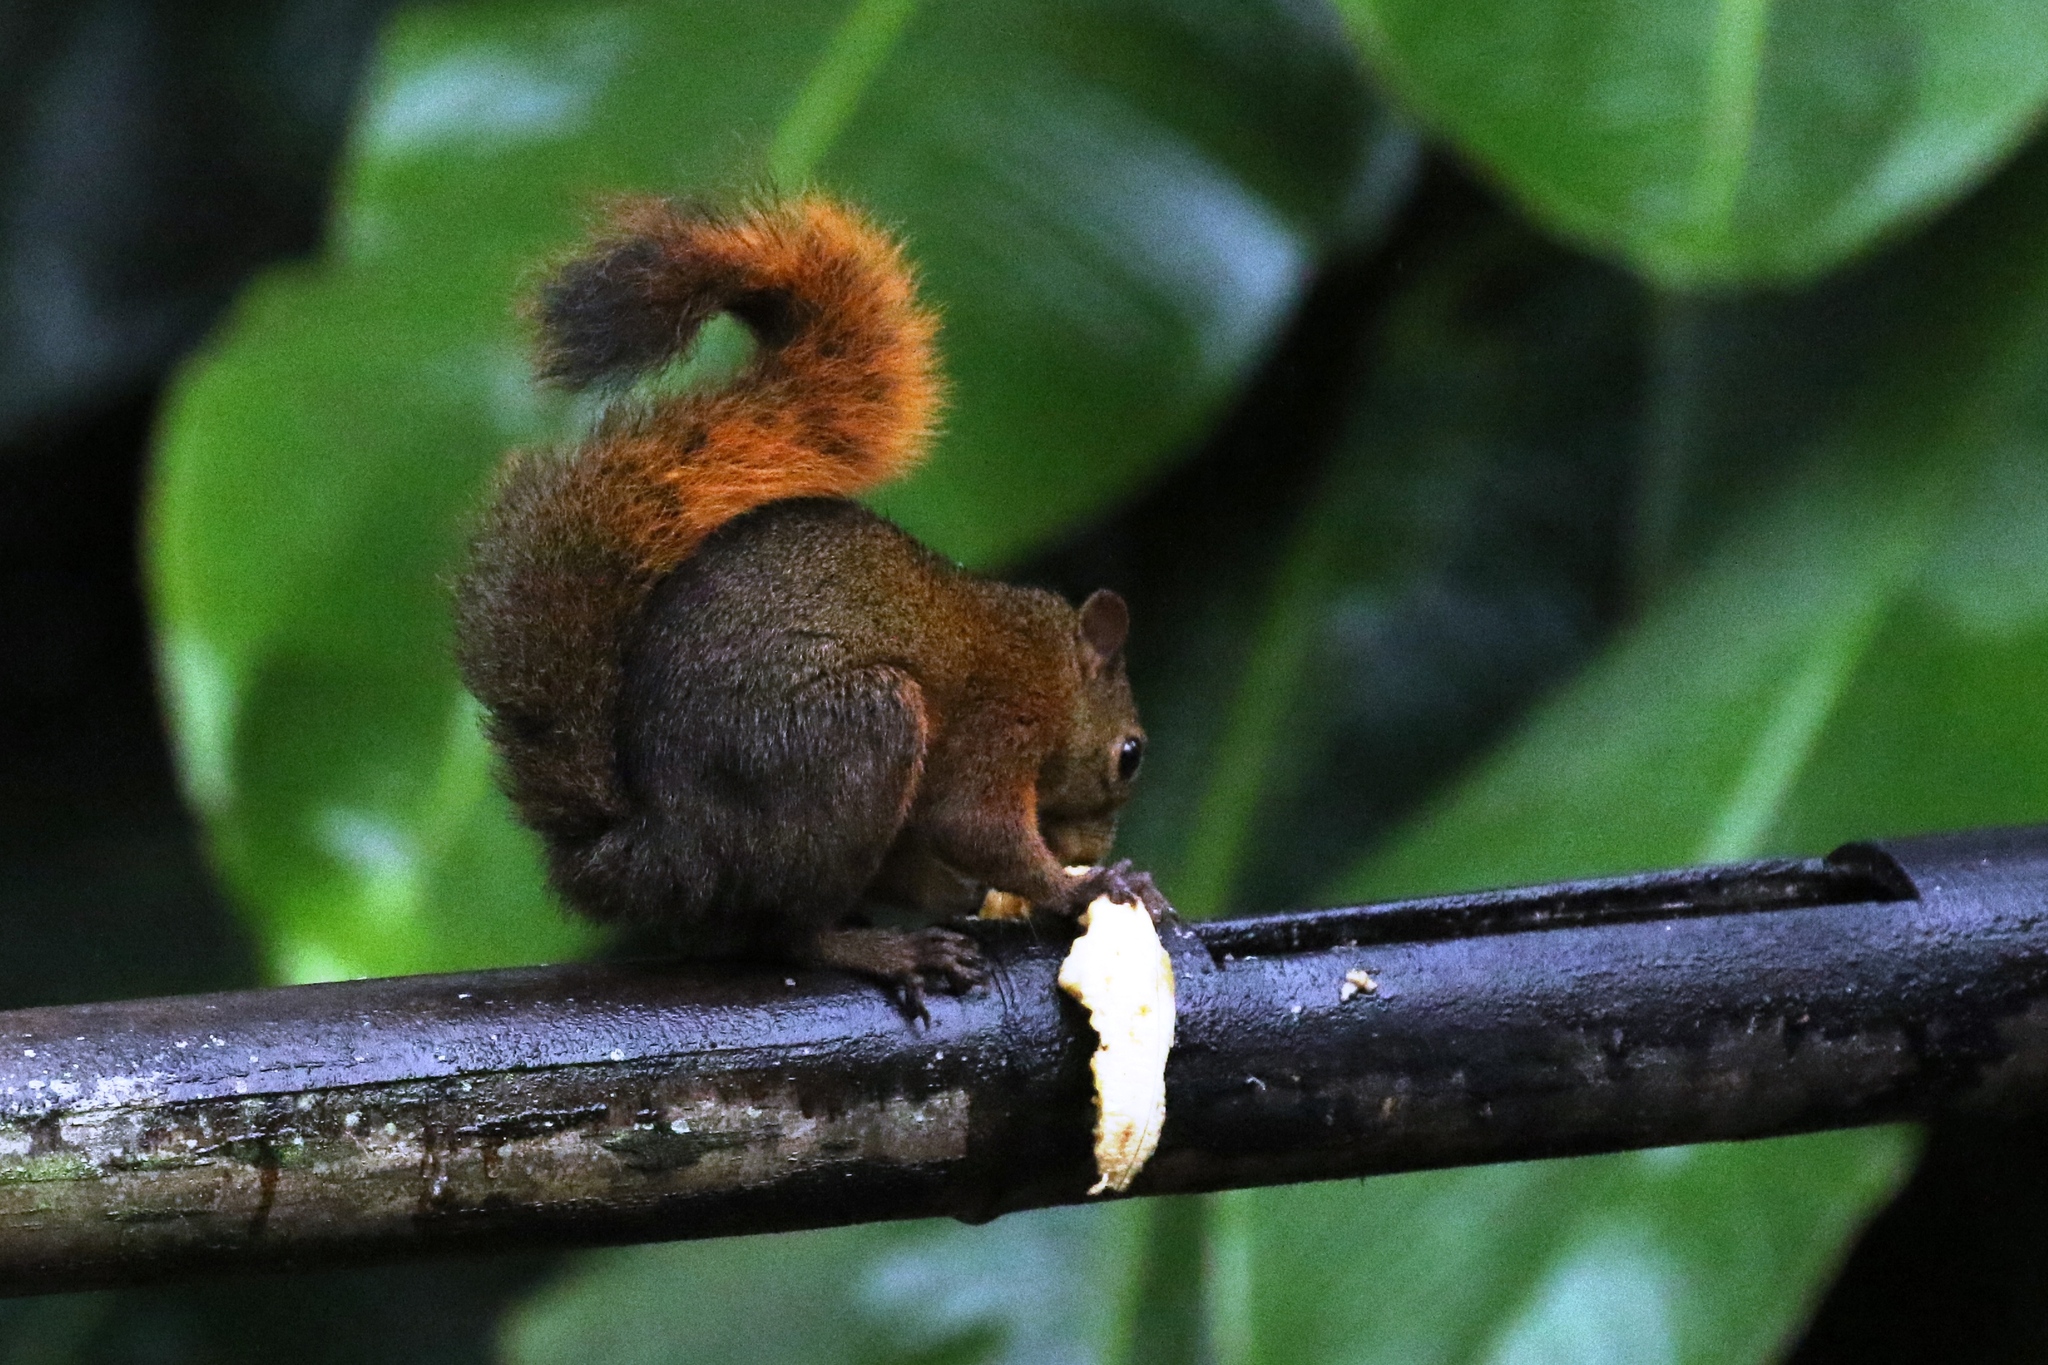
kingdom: Animalia
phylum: Chordata
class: Mammalia
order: Rodentia
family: Sciuridae
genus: Sciurus
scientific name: Sciurus granatensis
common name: Red-tailed squirrel
